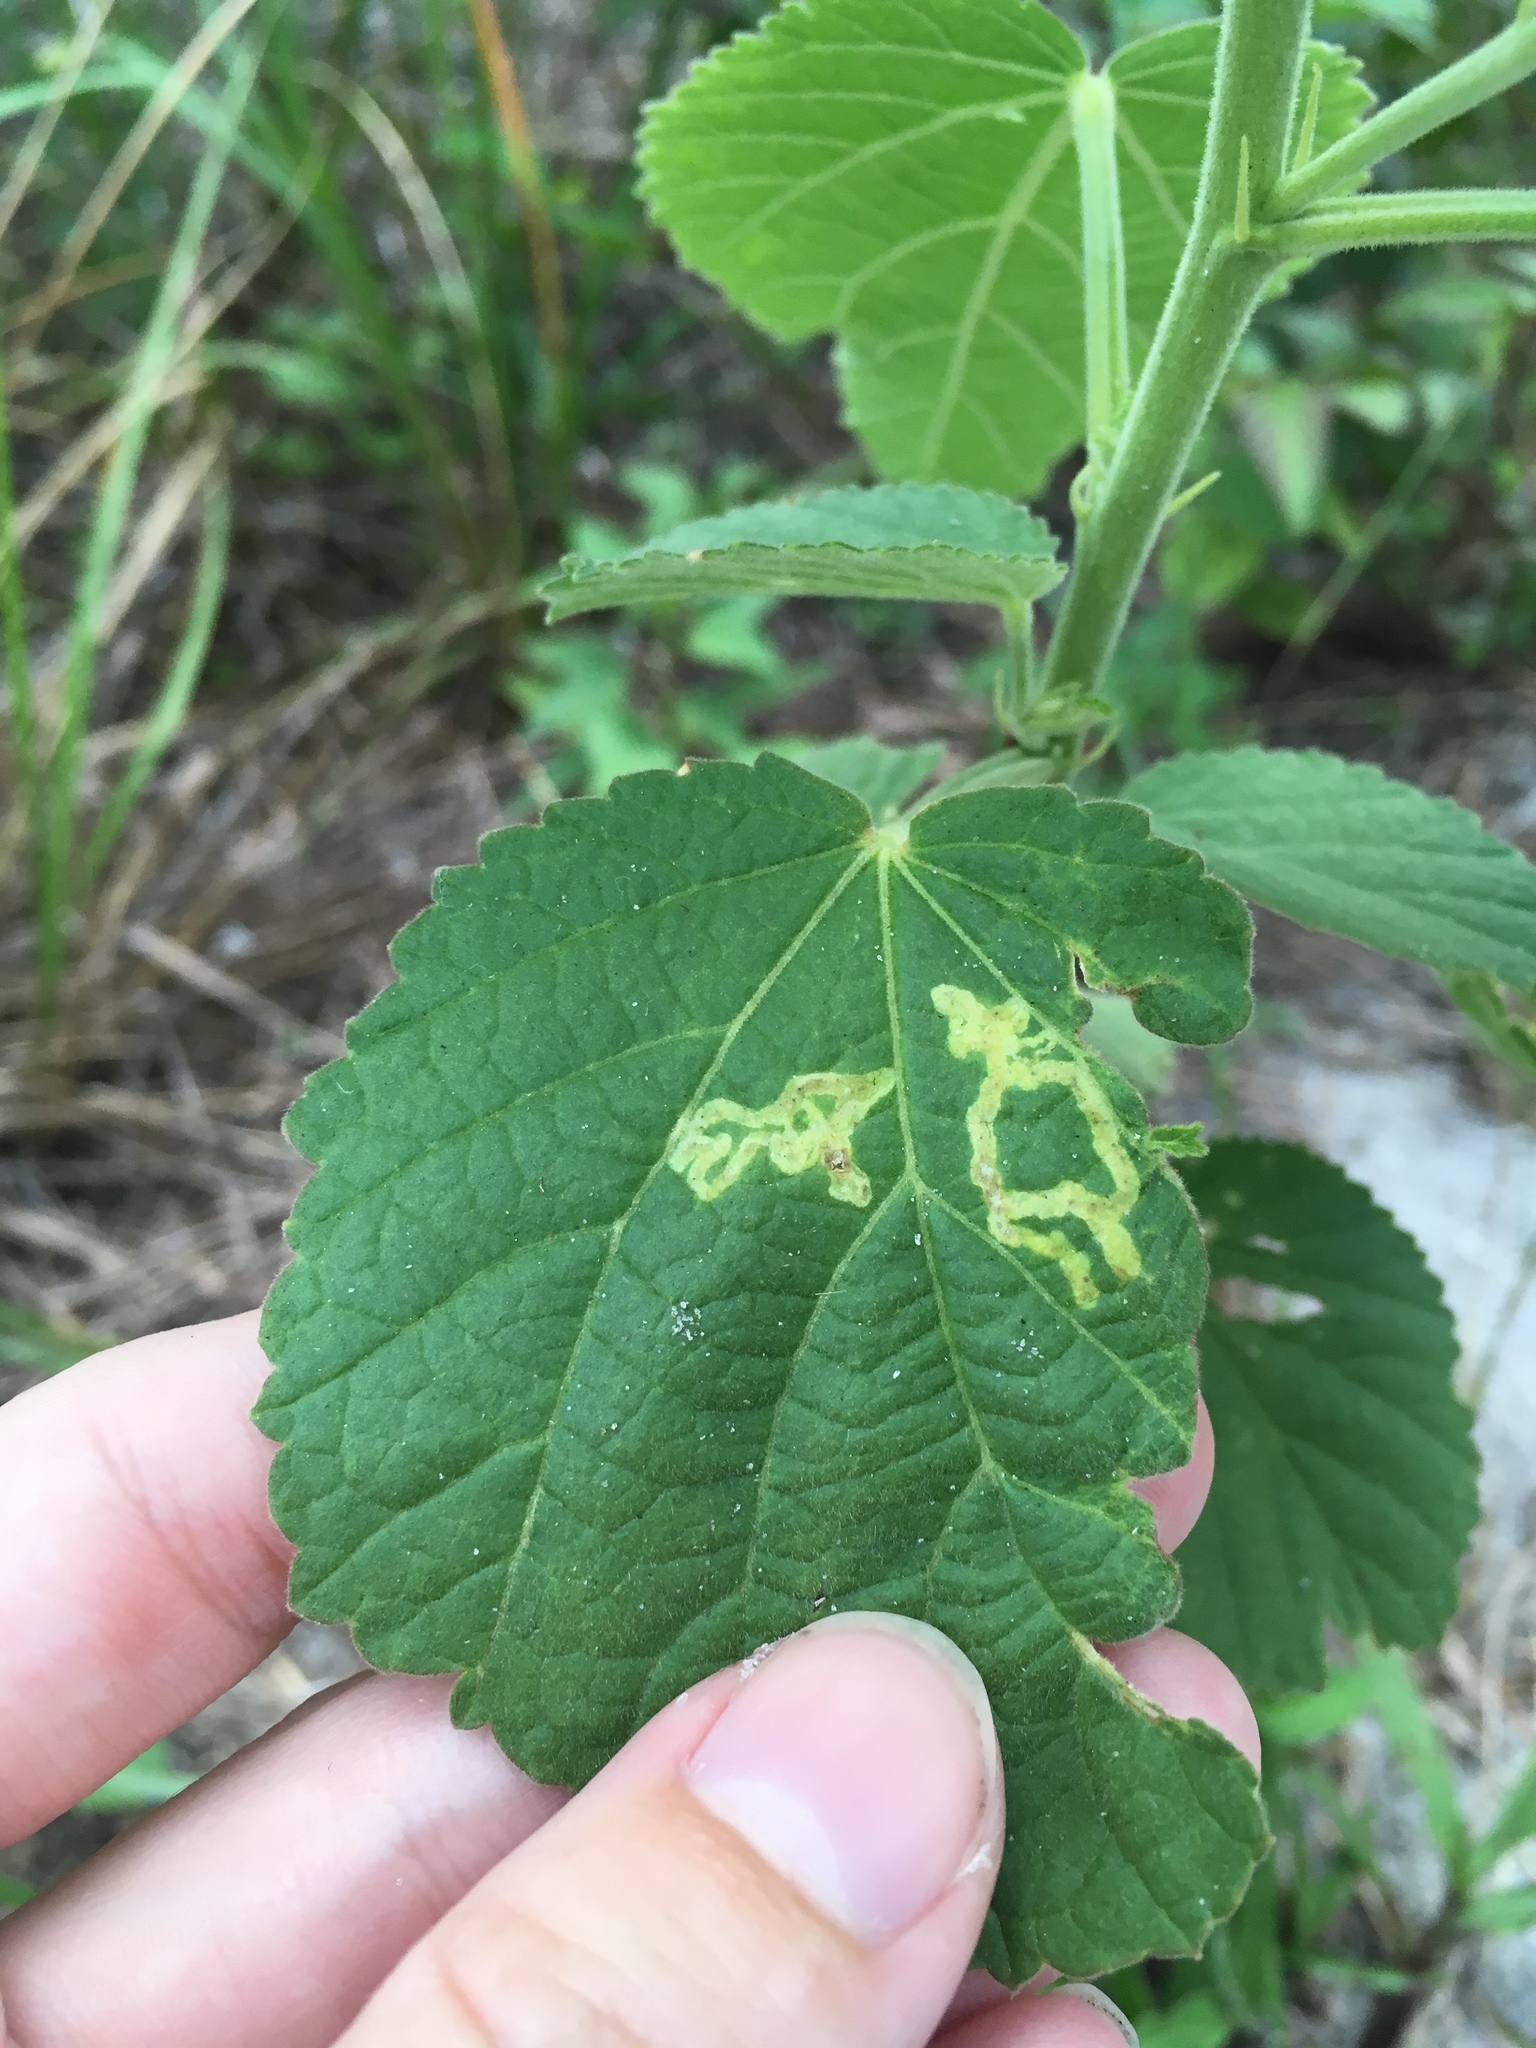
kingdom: Plantae
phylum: Tracheophyta
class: Magnoliopsida
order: Malvales
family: Malvaceae
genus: Sida
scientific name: Sida cordifolia
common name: Ilima
